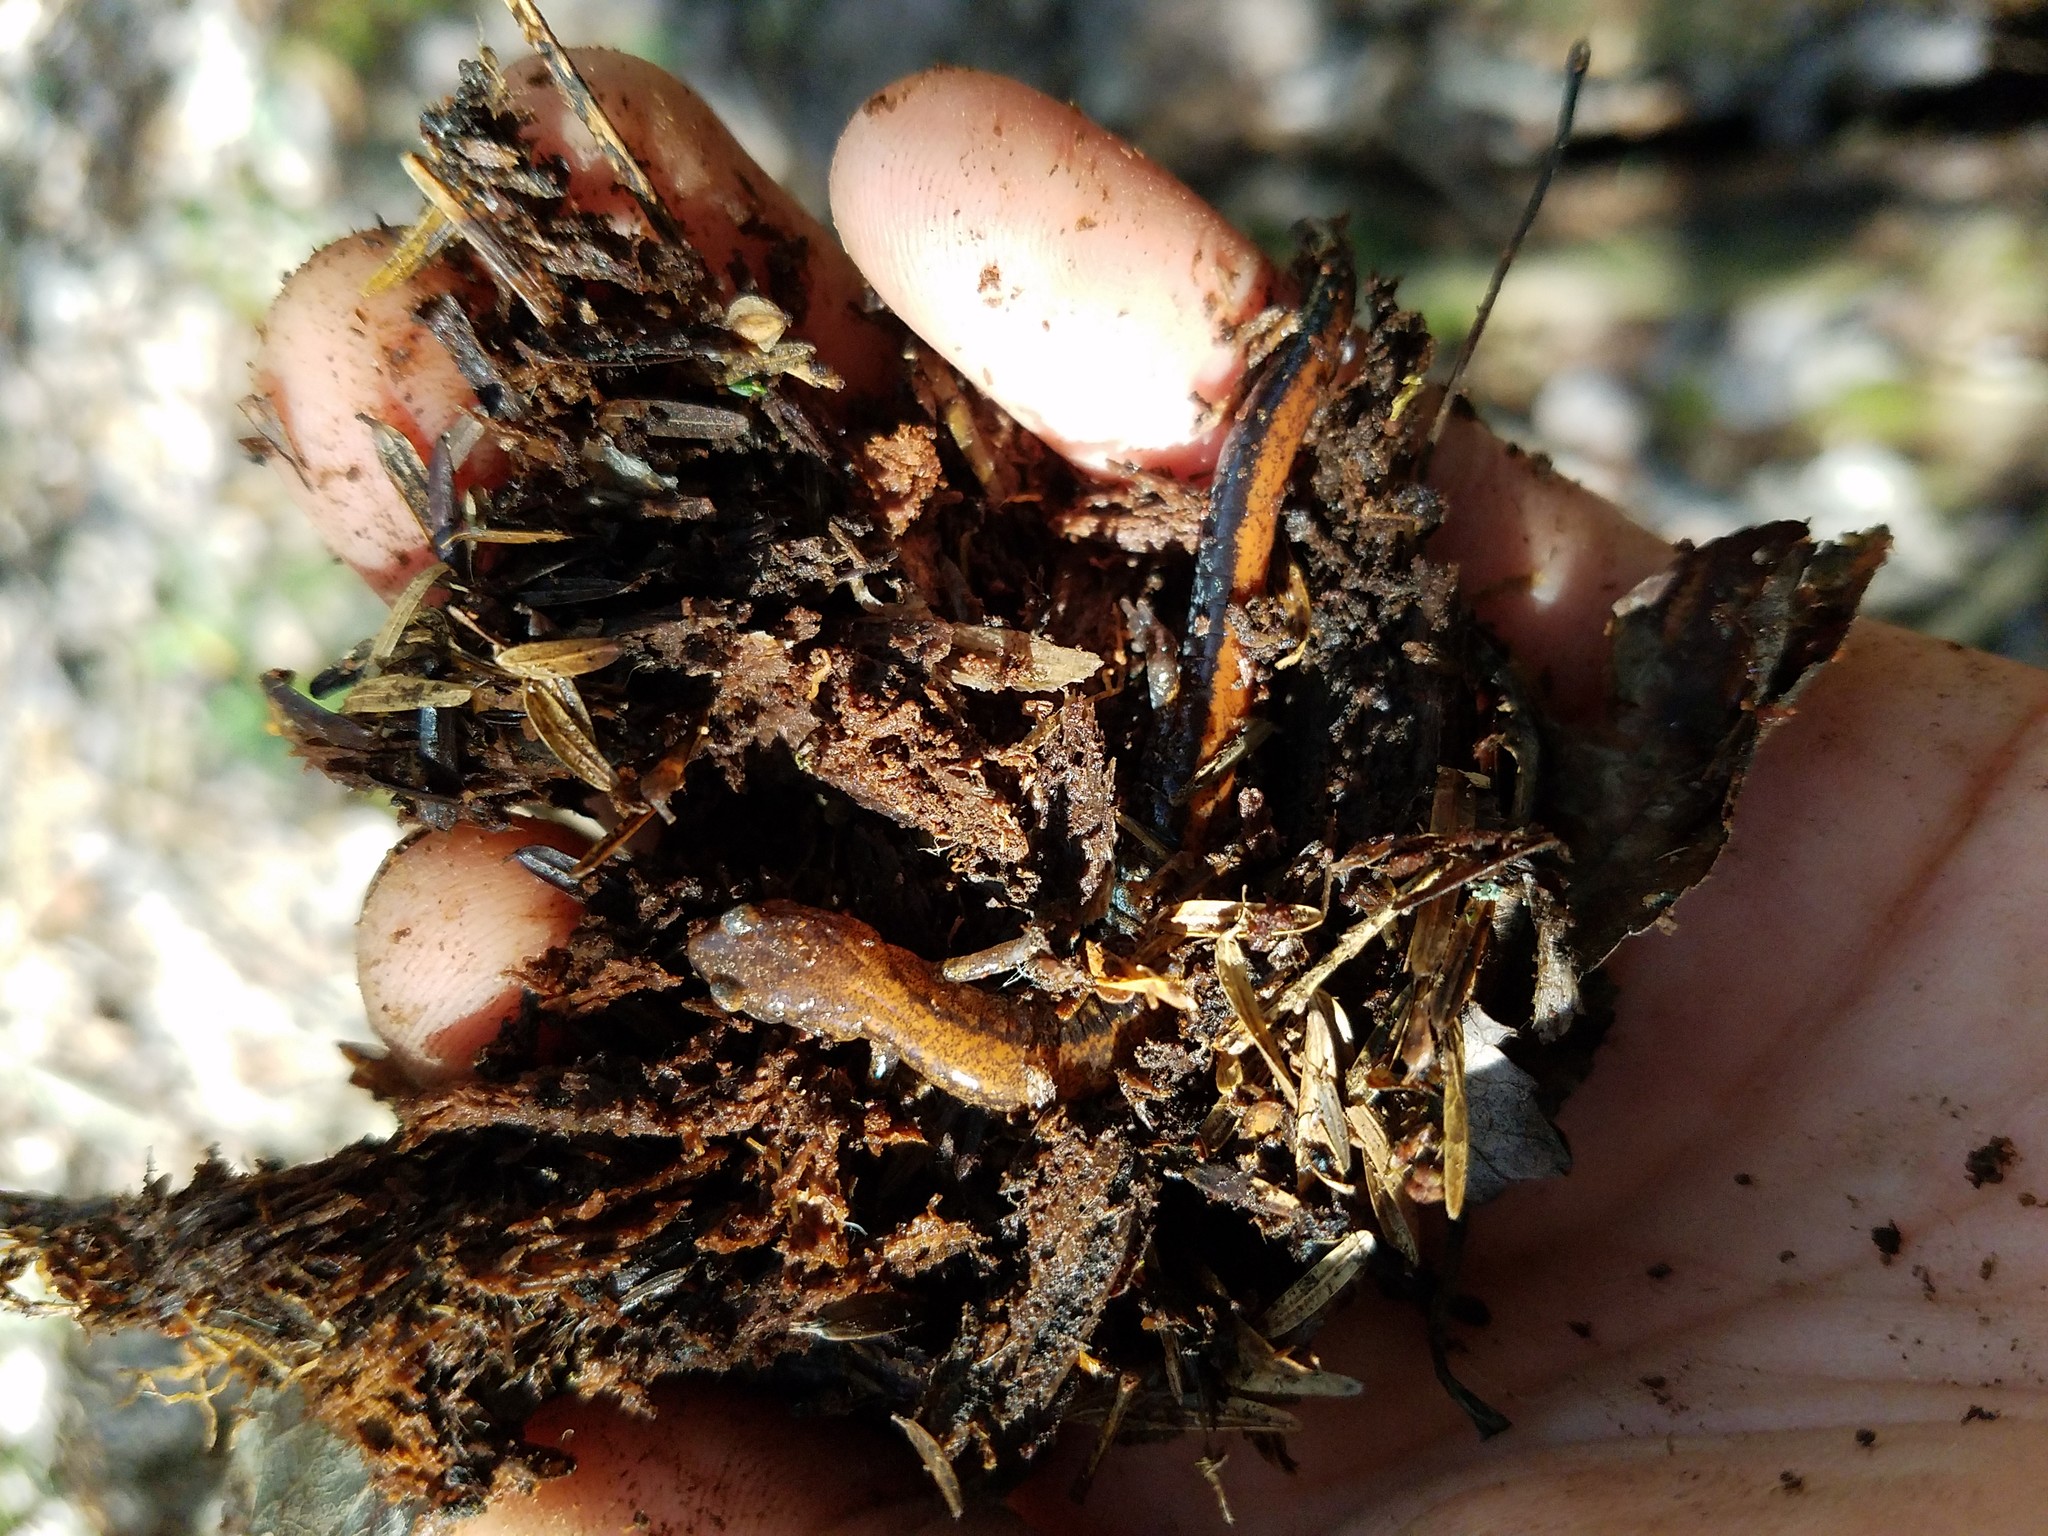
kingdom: Animalia
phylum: Chordata
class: Amphibia
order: Caudata
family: Plethodontidae
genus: Plethodon
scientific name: Plethodon cinereus
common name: Redback salamander
